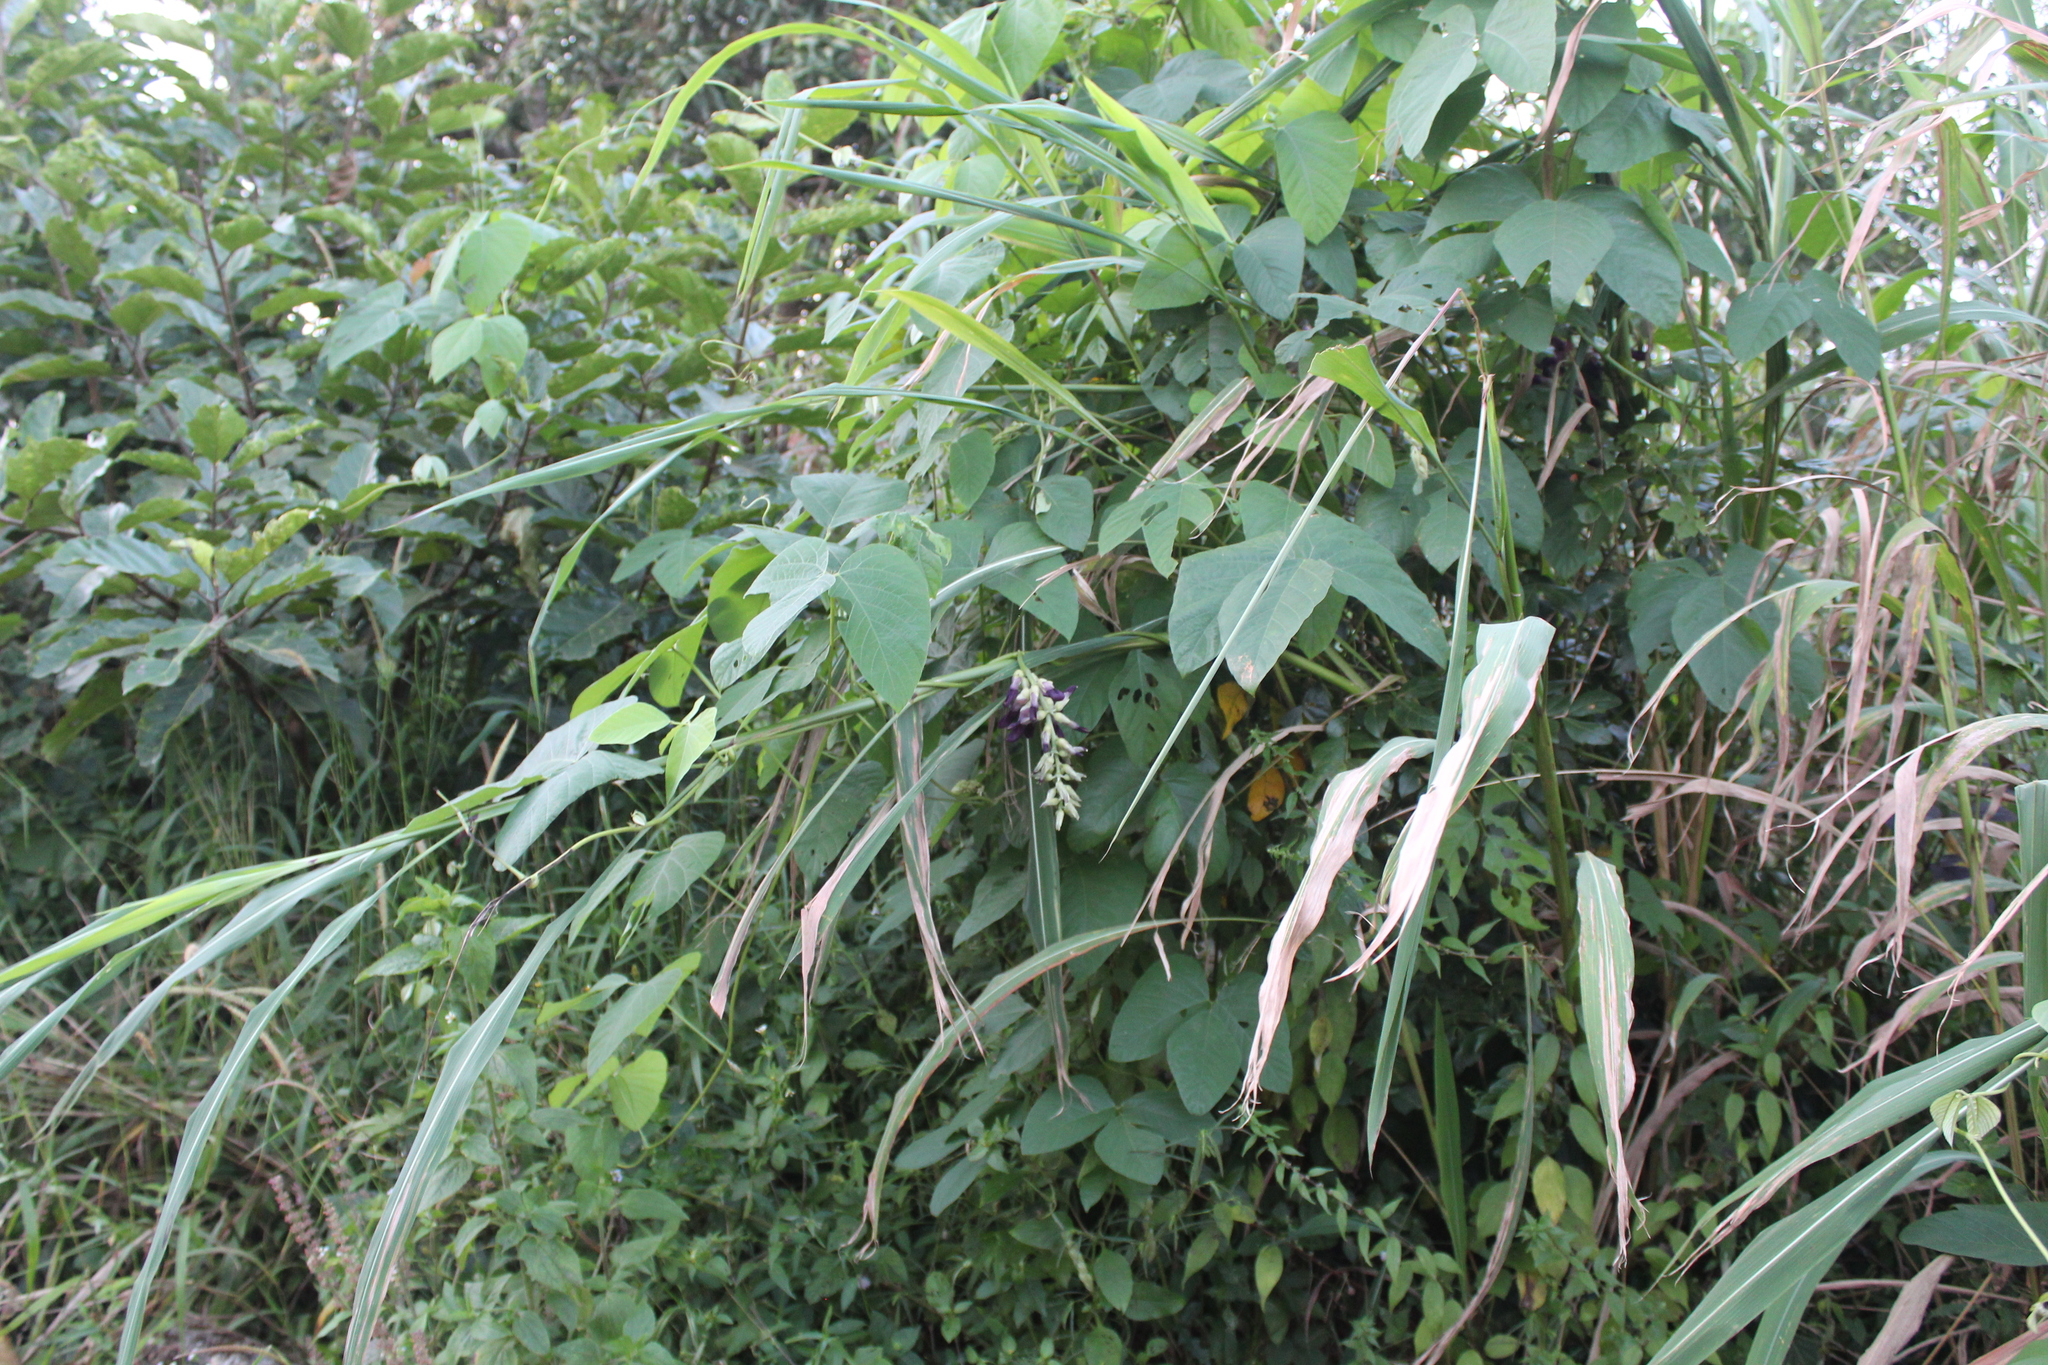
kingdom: Plantae
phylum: Tracheophyta
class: Magnoliopsida
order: Fabales
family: Fabaceae
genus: Mucuna
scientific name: Mucuna pruriens
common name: Cow-itch
